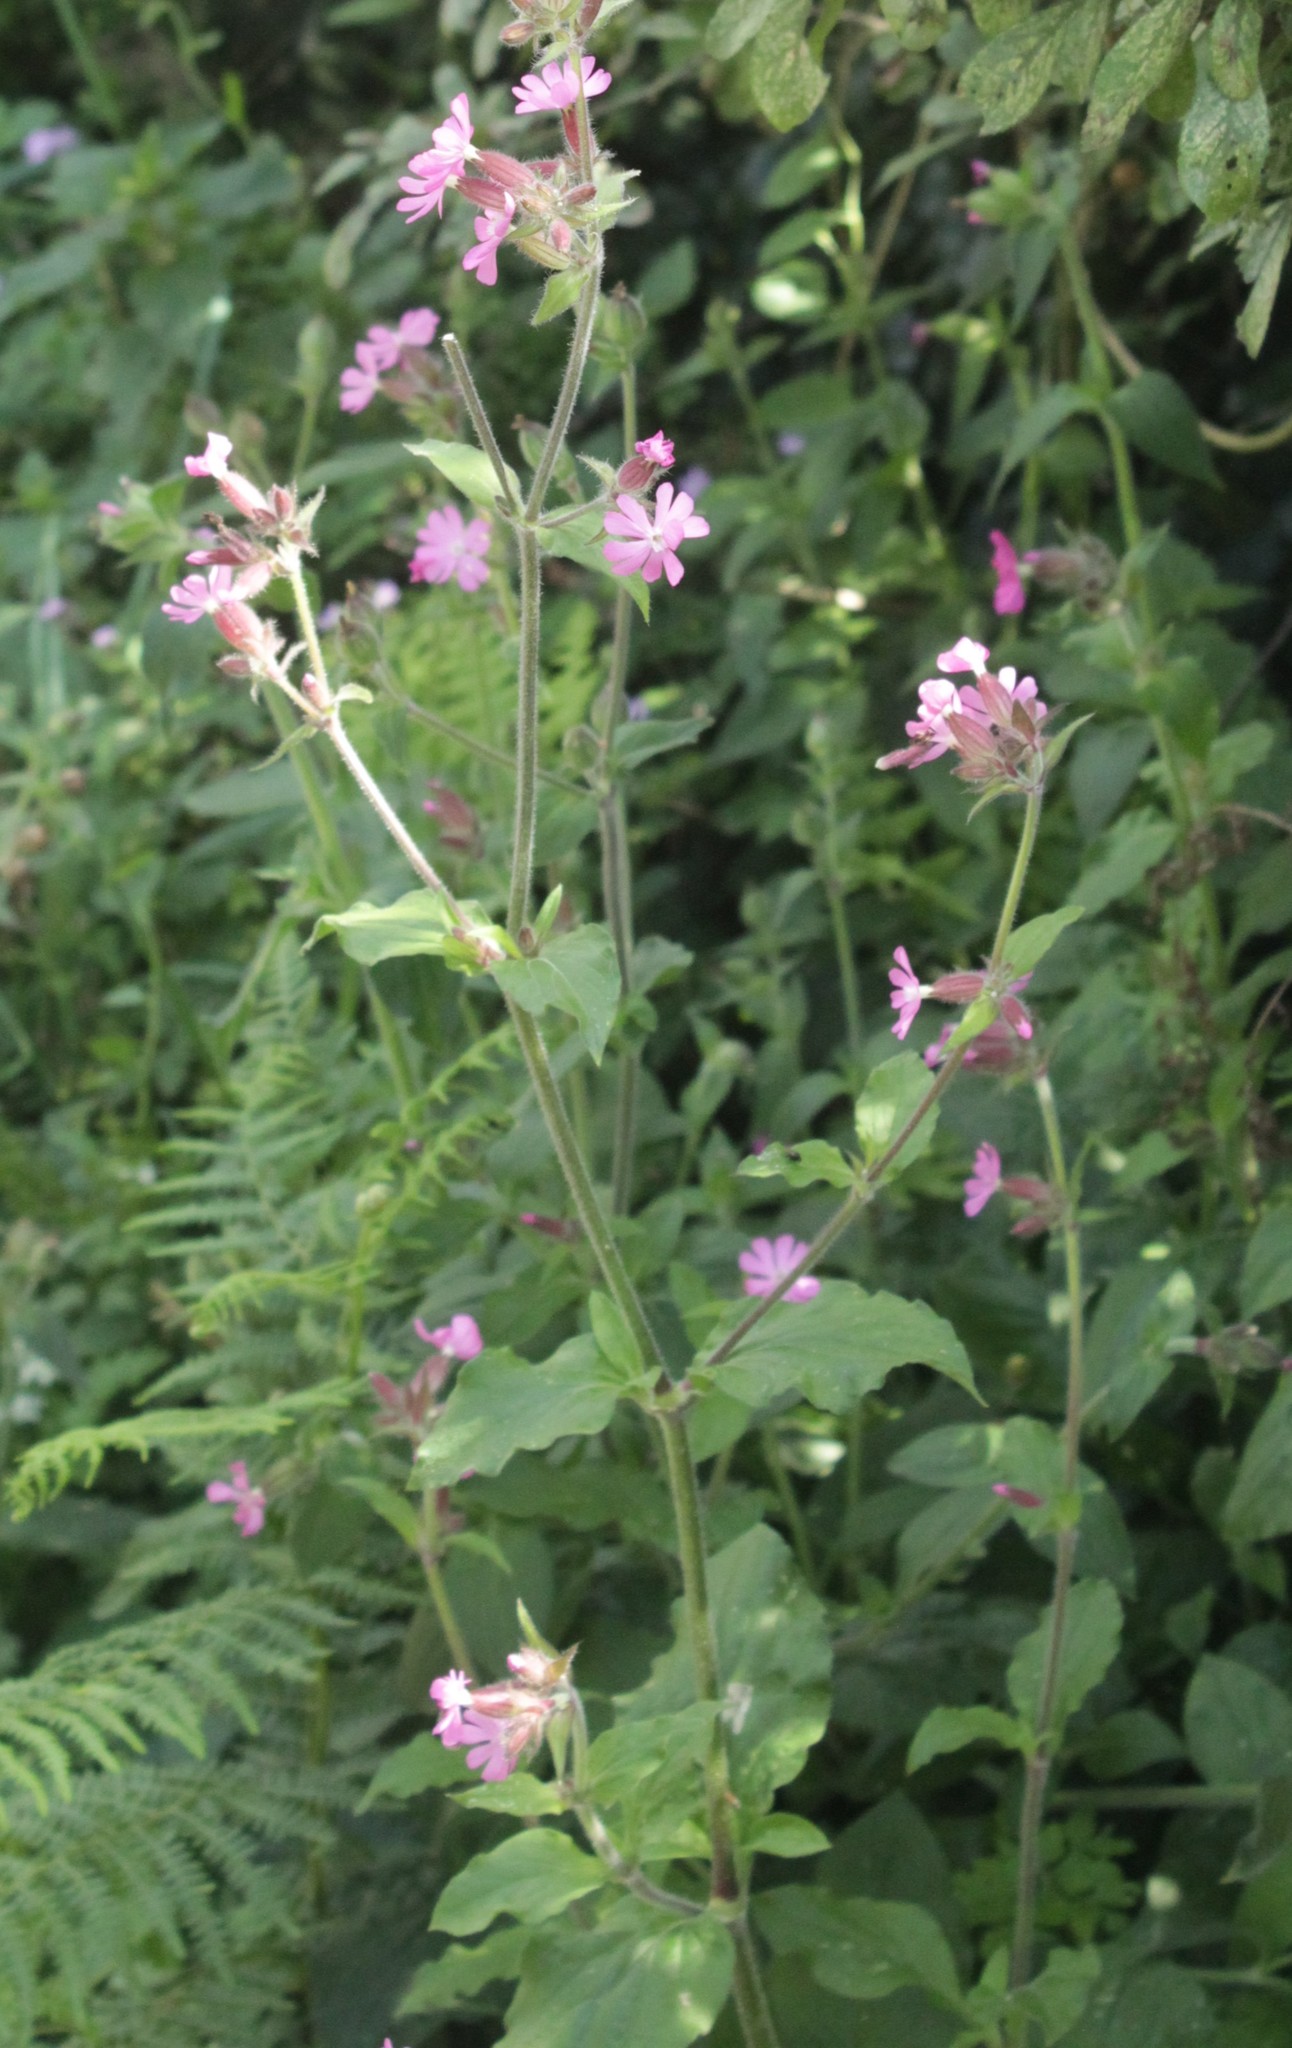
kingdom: Plantae
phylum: Tracheophyta
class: Magnoliopsida
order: Caryophyllales
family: Caryophyllaceae
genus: Silene
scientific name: Silene dioica
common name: Red campion
